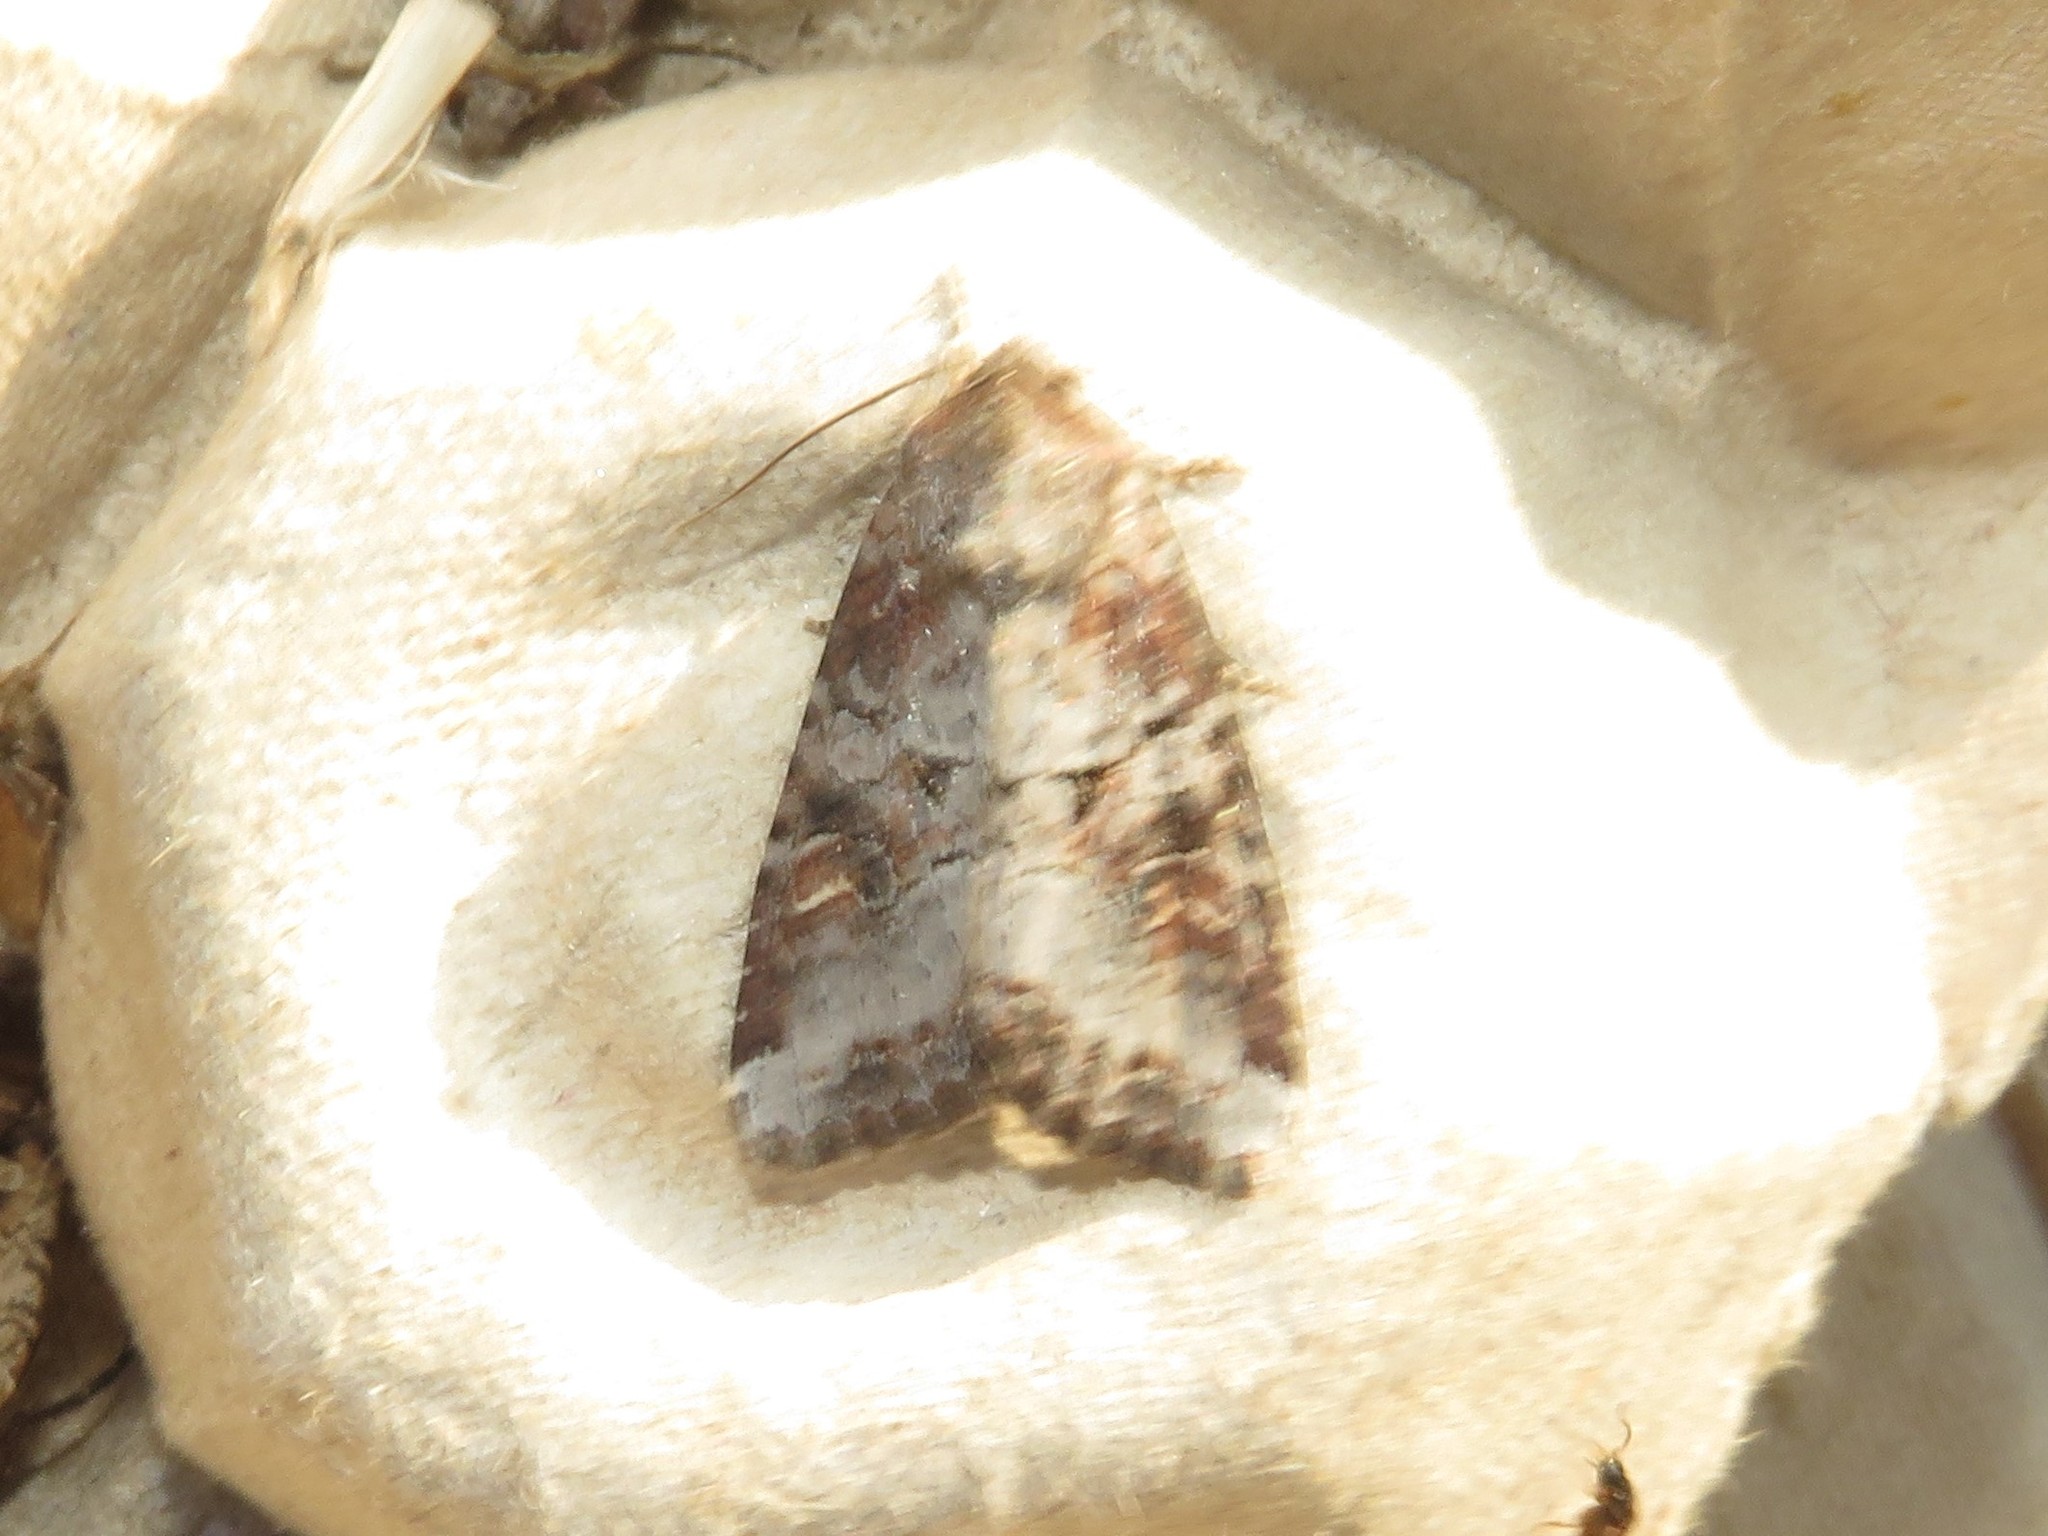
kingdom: Animalia
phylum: Arthropoda
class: Insecta
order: Lepidoptera
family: Noctuidae
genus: Trichordestra
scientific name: Trichordestra legitima
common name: Striped garden caterpillar
